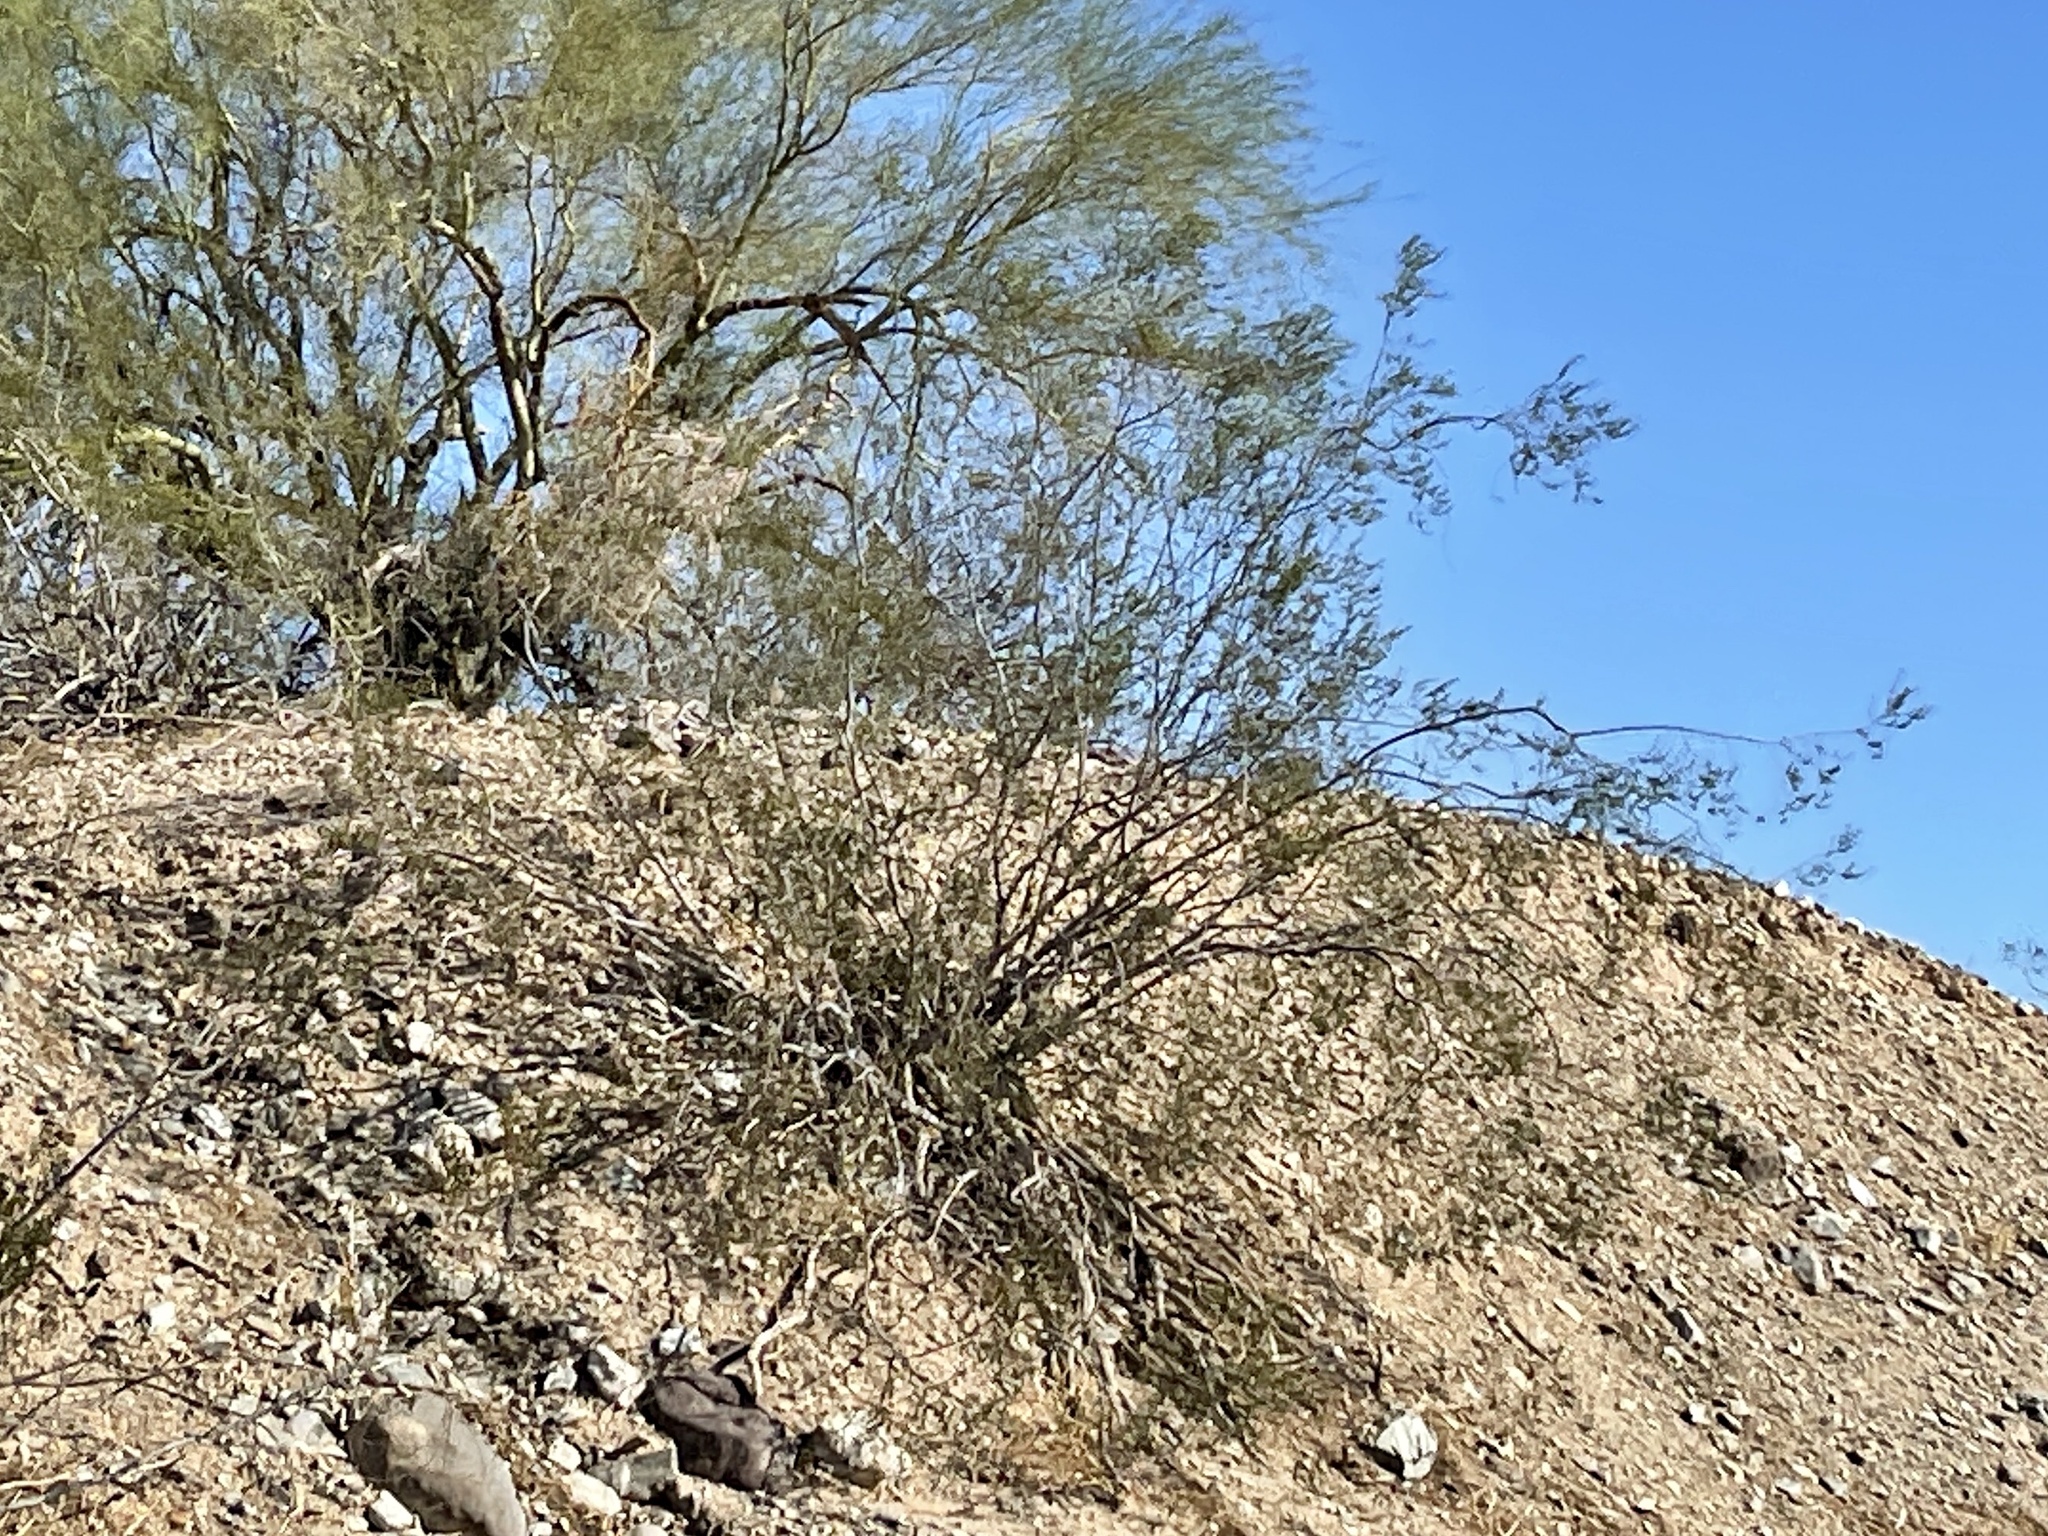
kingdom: Plantae
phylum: Tracheophyta
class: Magnoliopsida
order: Zygophyllales
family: Zygophyllaceae
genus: Larrea
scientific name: Larrea tridentata
